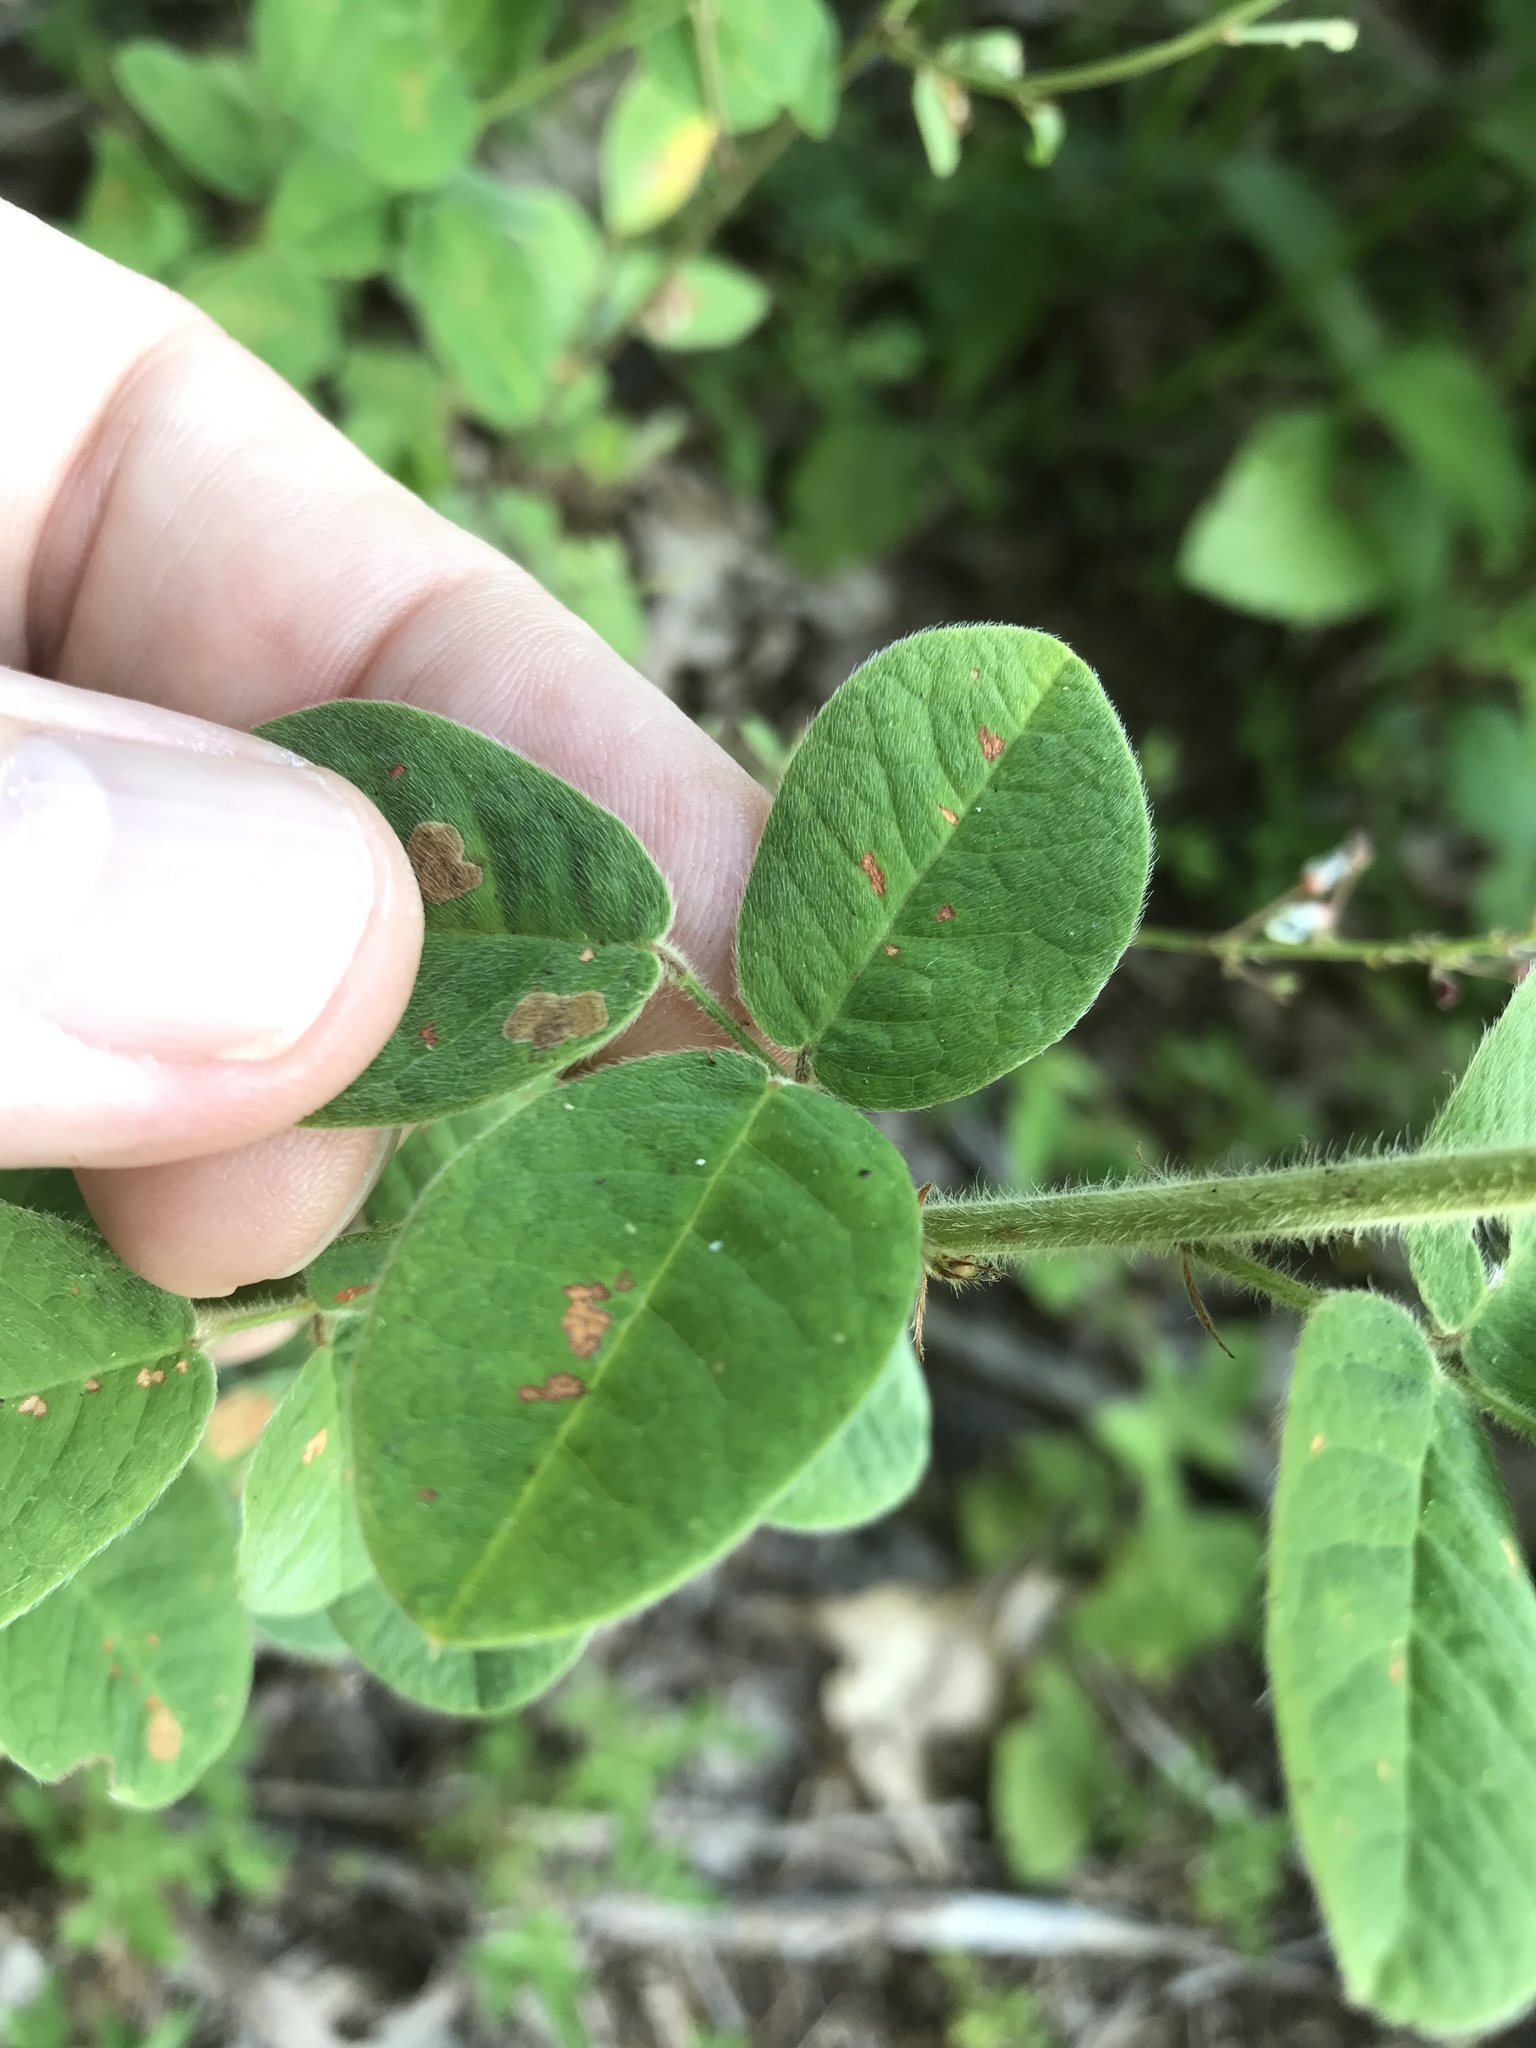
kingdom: Plantae
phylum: Tracheophyta
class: Magnoliopsida
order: Fabales
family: Fabaceae
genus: Lespedeza
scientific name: Lespedeza hirta
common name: Hairy lespedeza
